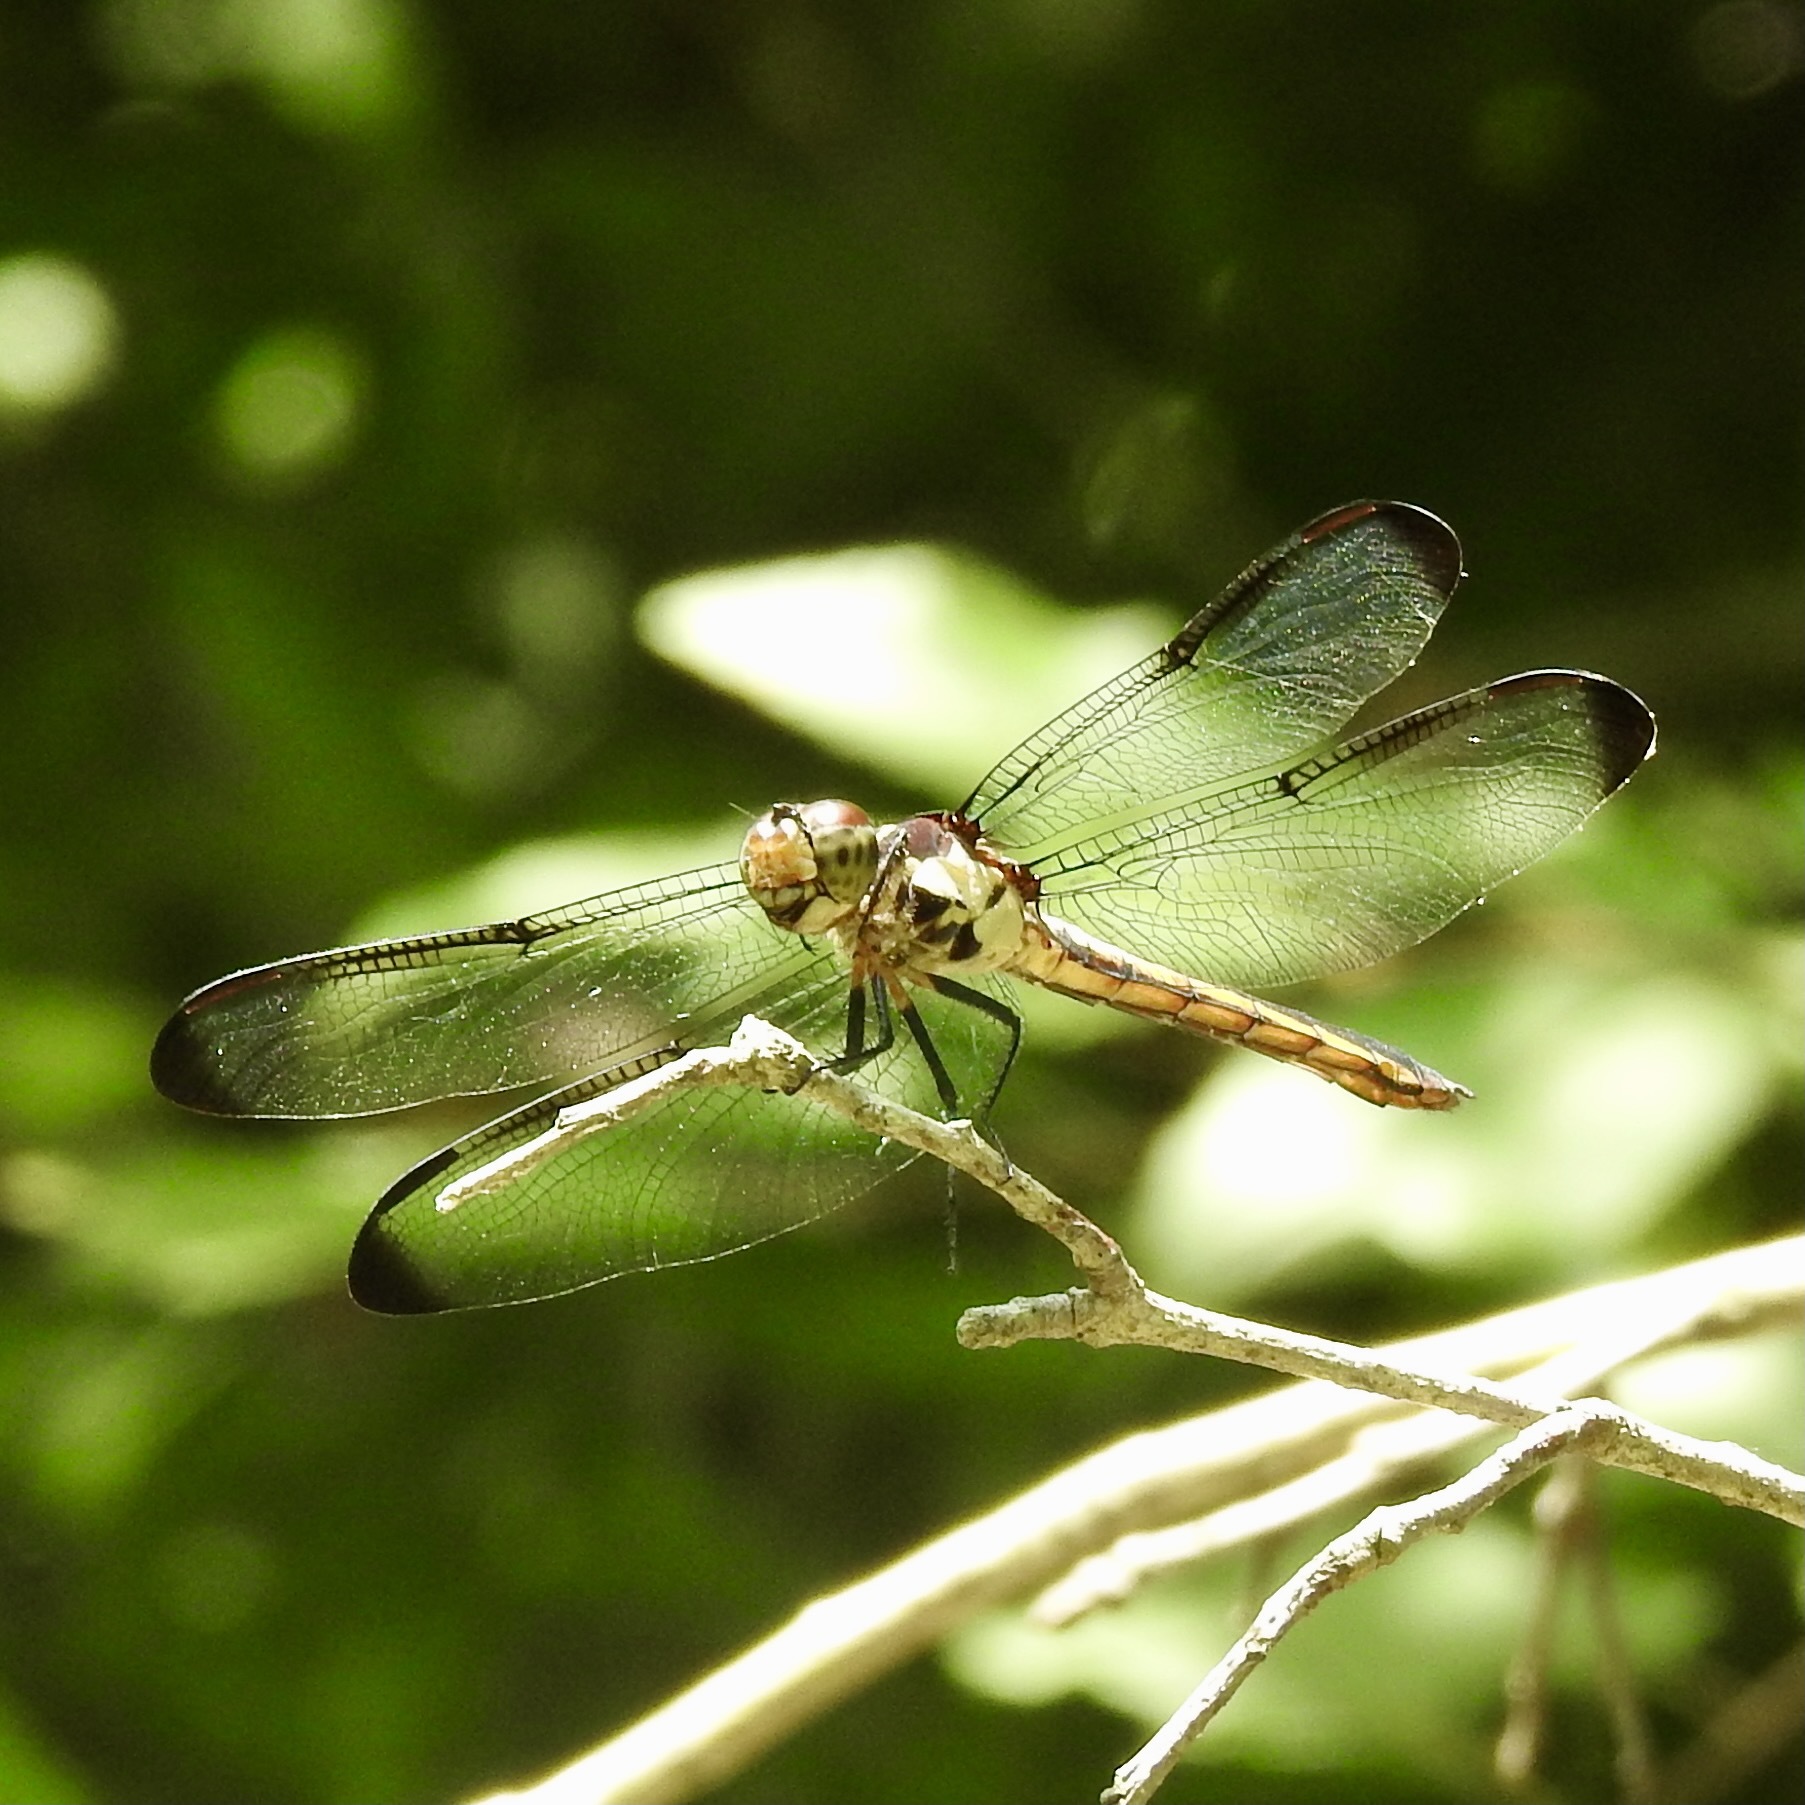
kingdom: Animalia
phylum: Arthropoda
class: Insecta
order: Odonata
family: Libellulidae
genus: Libellula
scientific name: Libellula incesta
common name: Slaty skimmer
